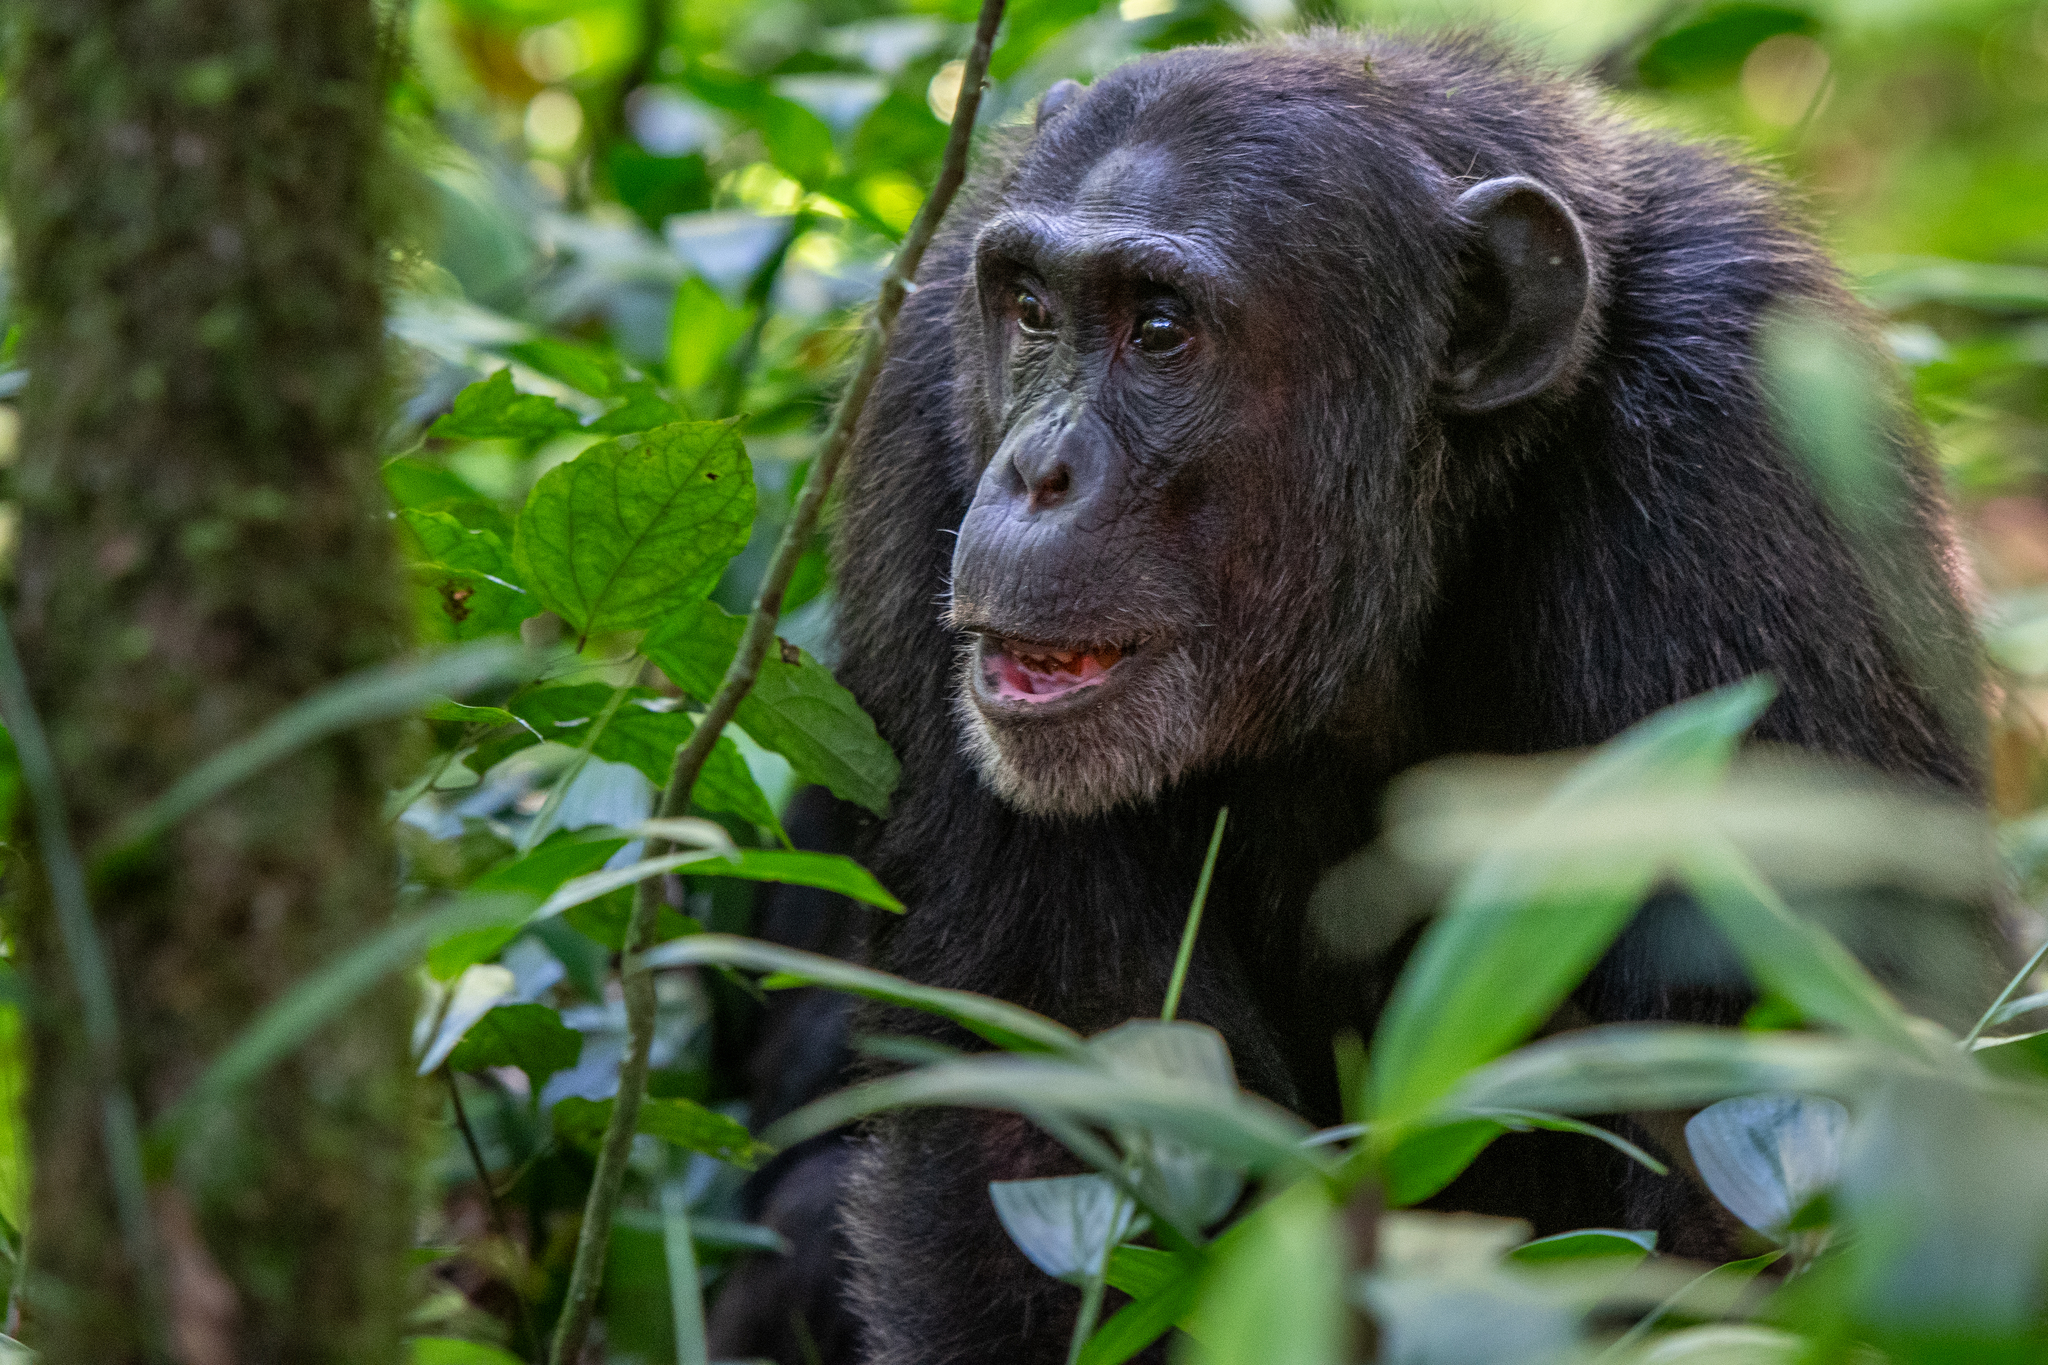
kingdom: Animalia
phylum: Chordata
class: Mammalia
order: Primates
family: Hominidae
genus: Pan
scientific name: Pan troglodytes
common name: Chimpanzee
